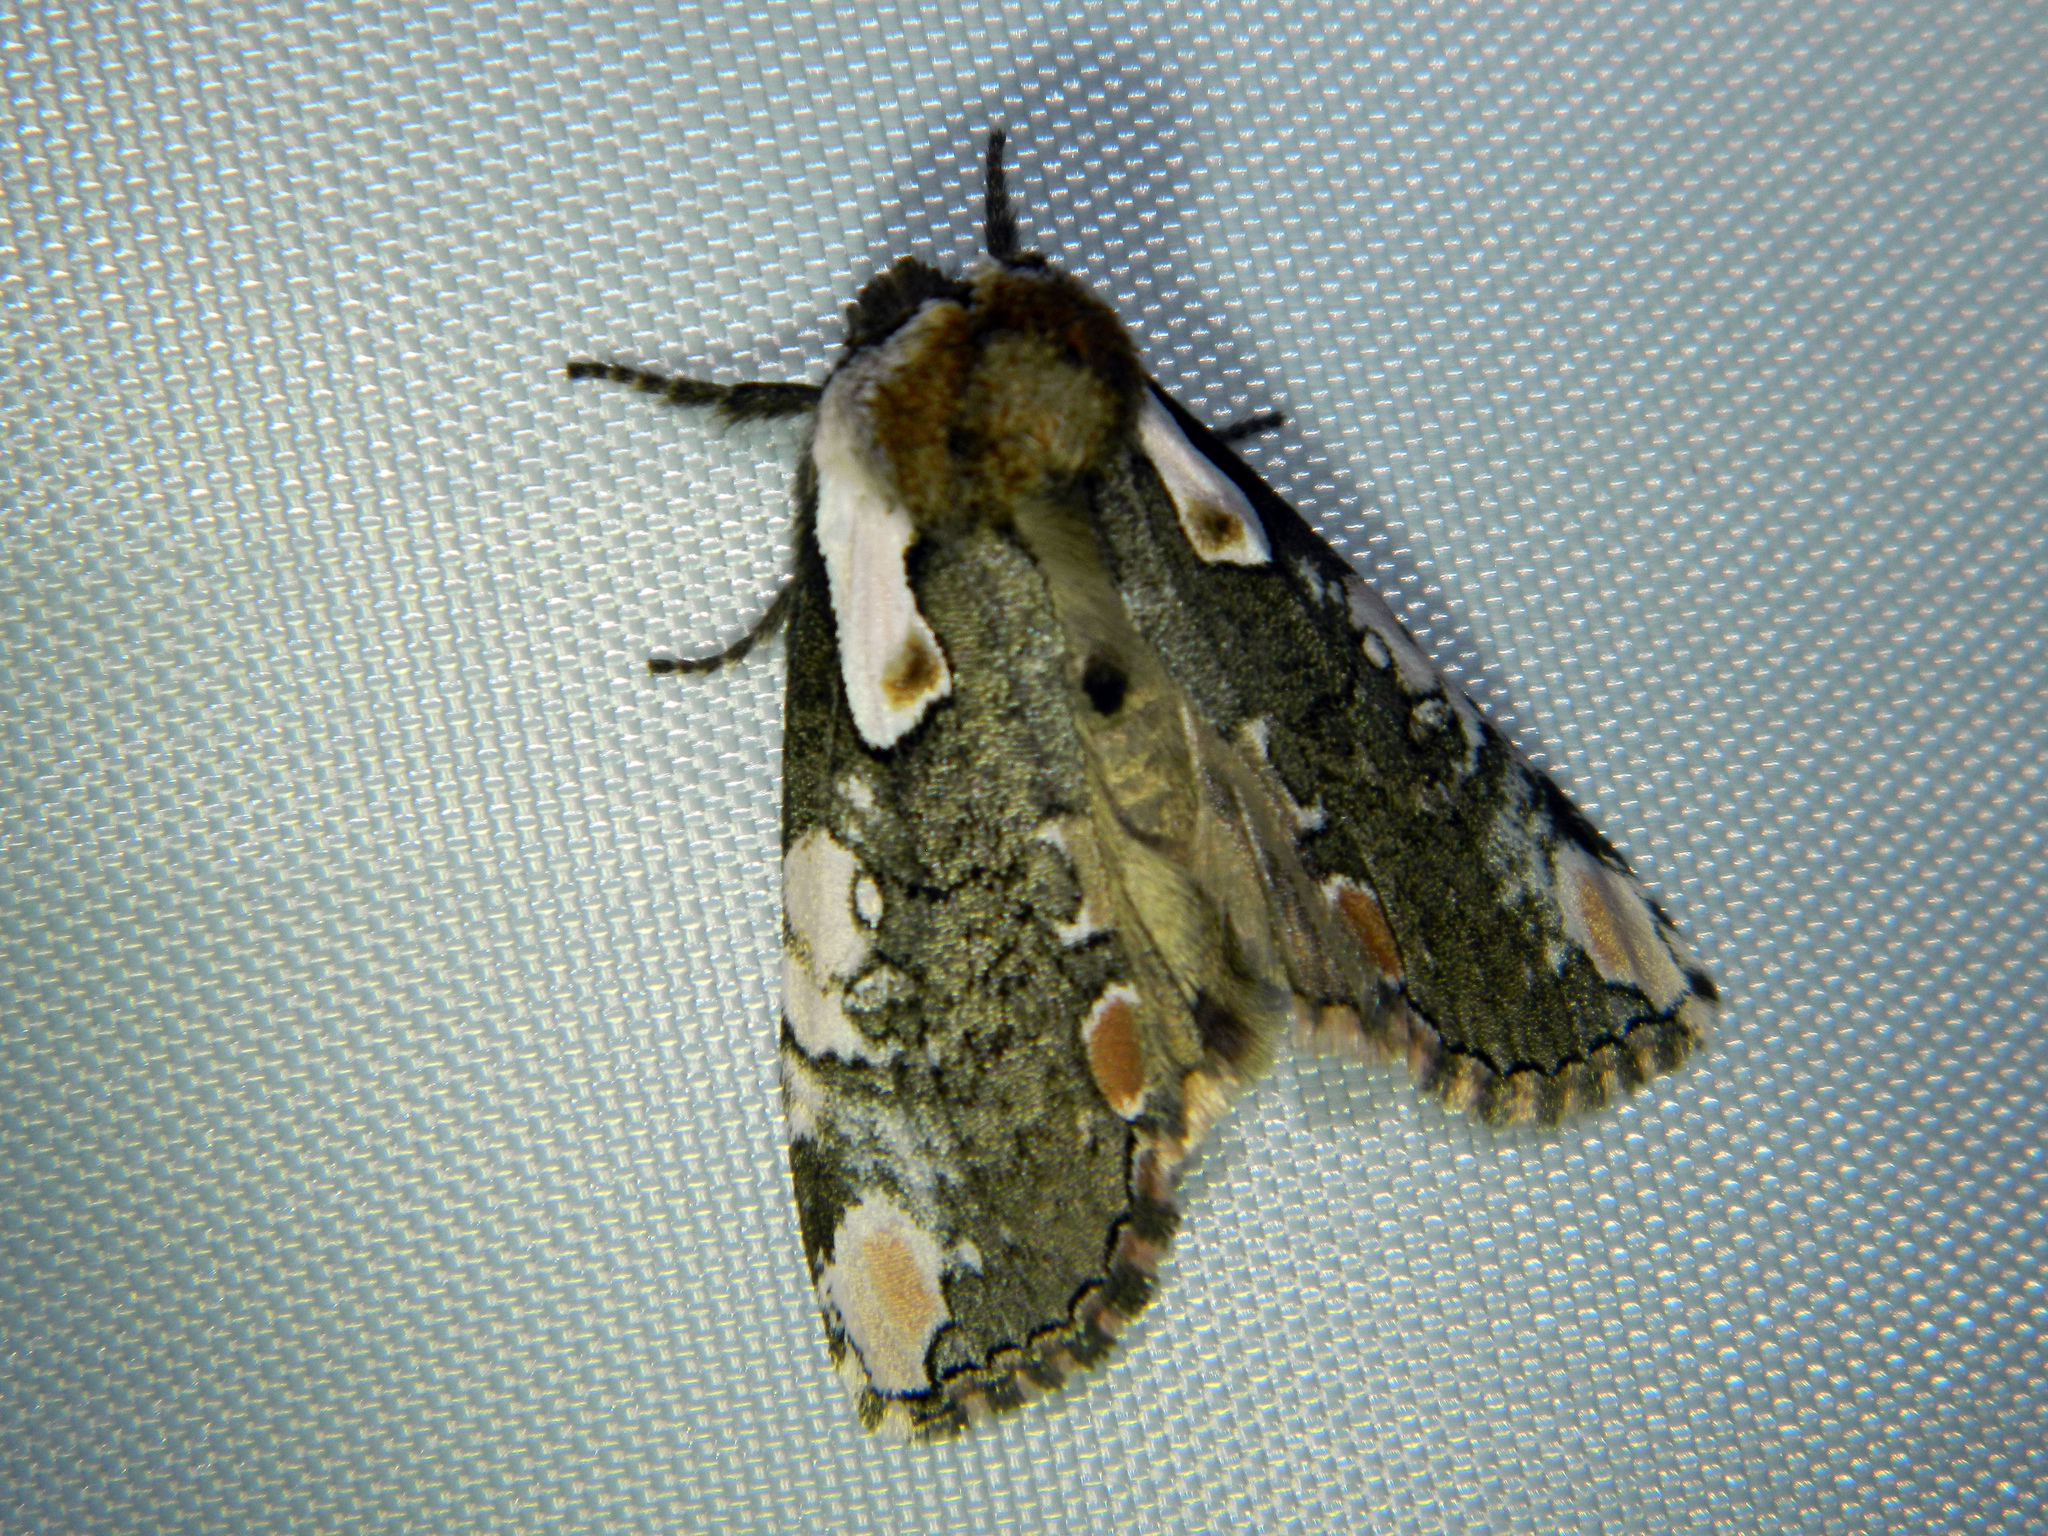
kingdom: Animalia
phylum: Arthropoda
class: Insecta
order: Lepidoptera
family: Drepanidae
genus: Euthyatira
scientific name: Euthyatira pudens
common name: Dogwood thyatirid moth
